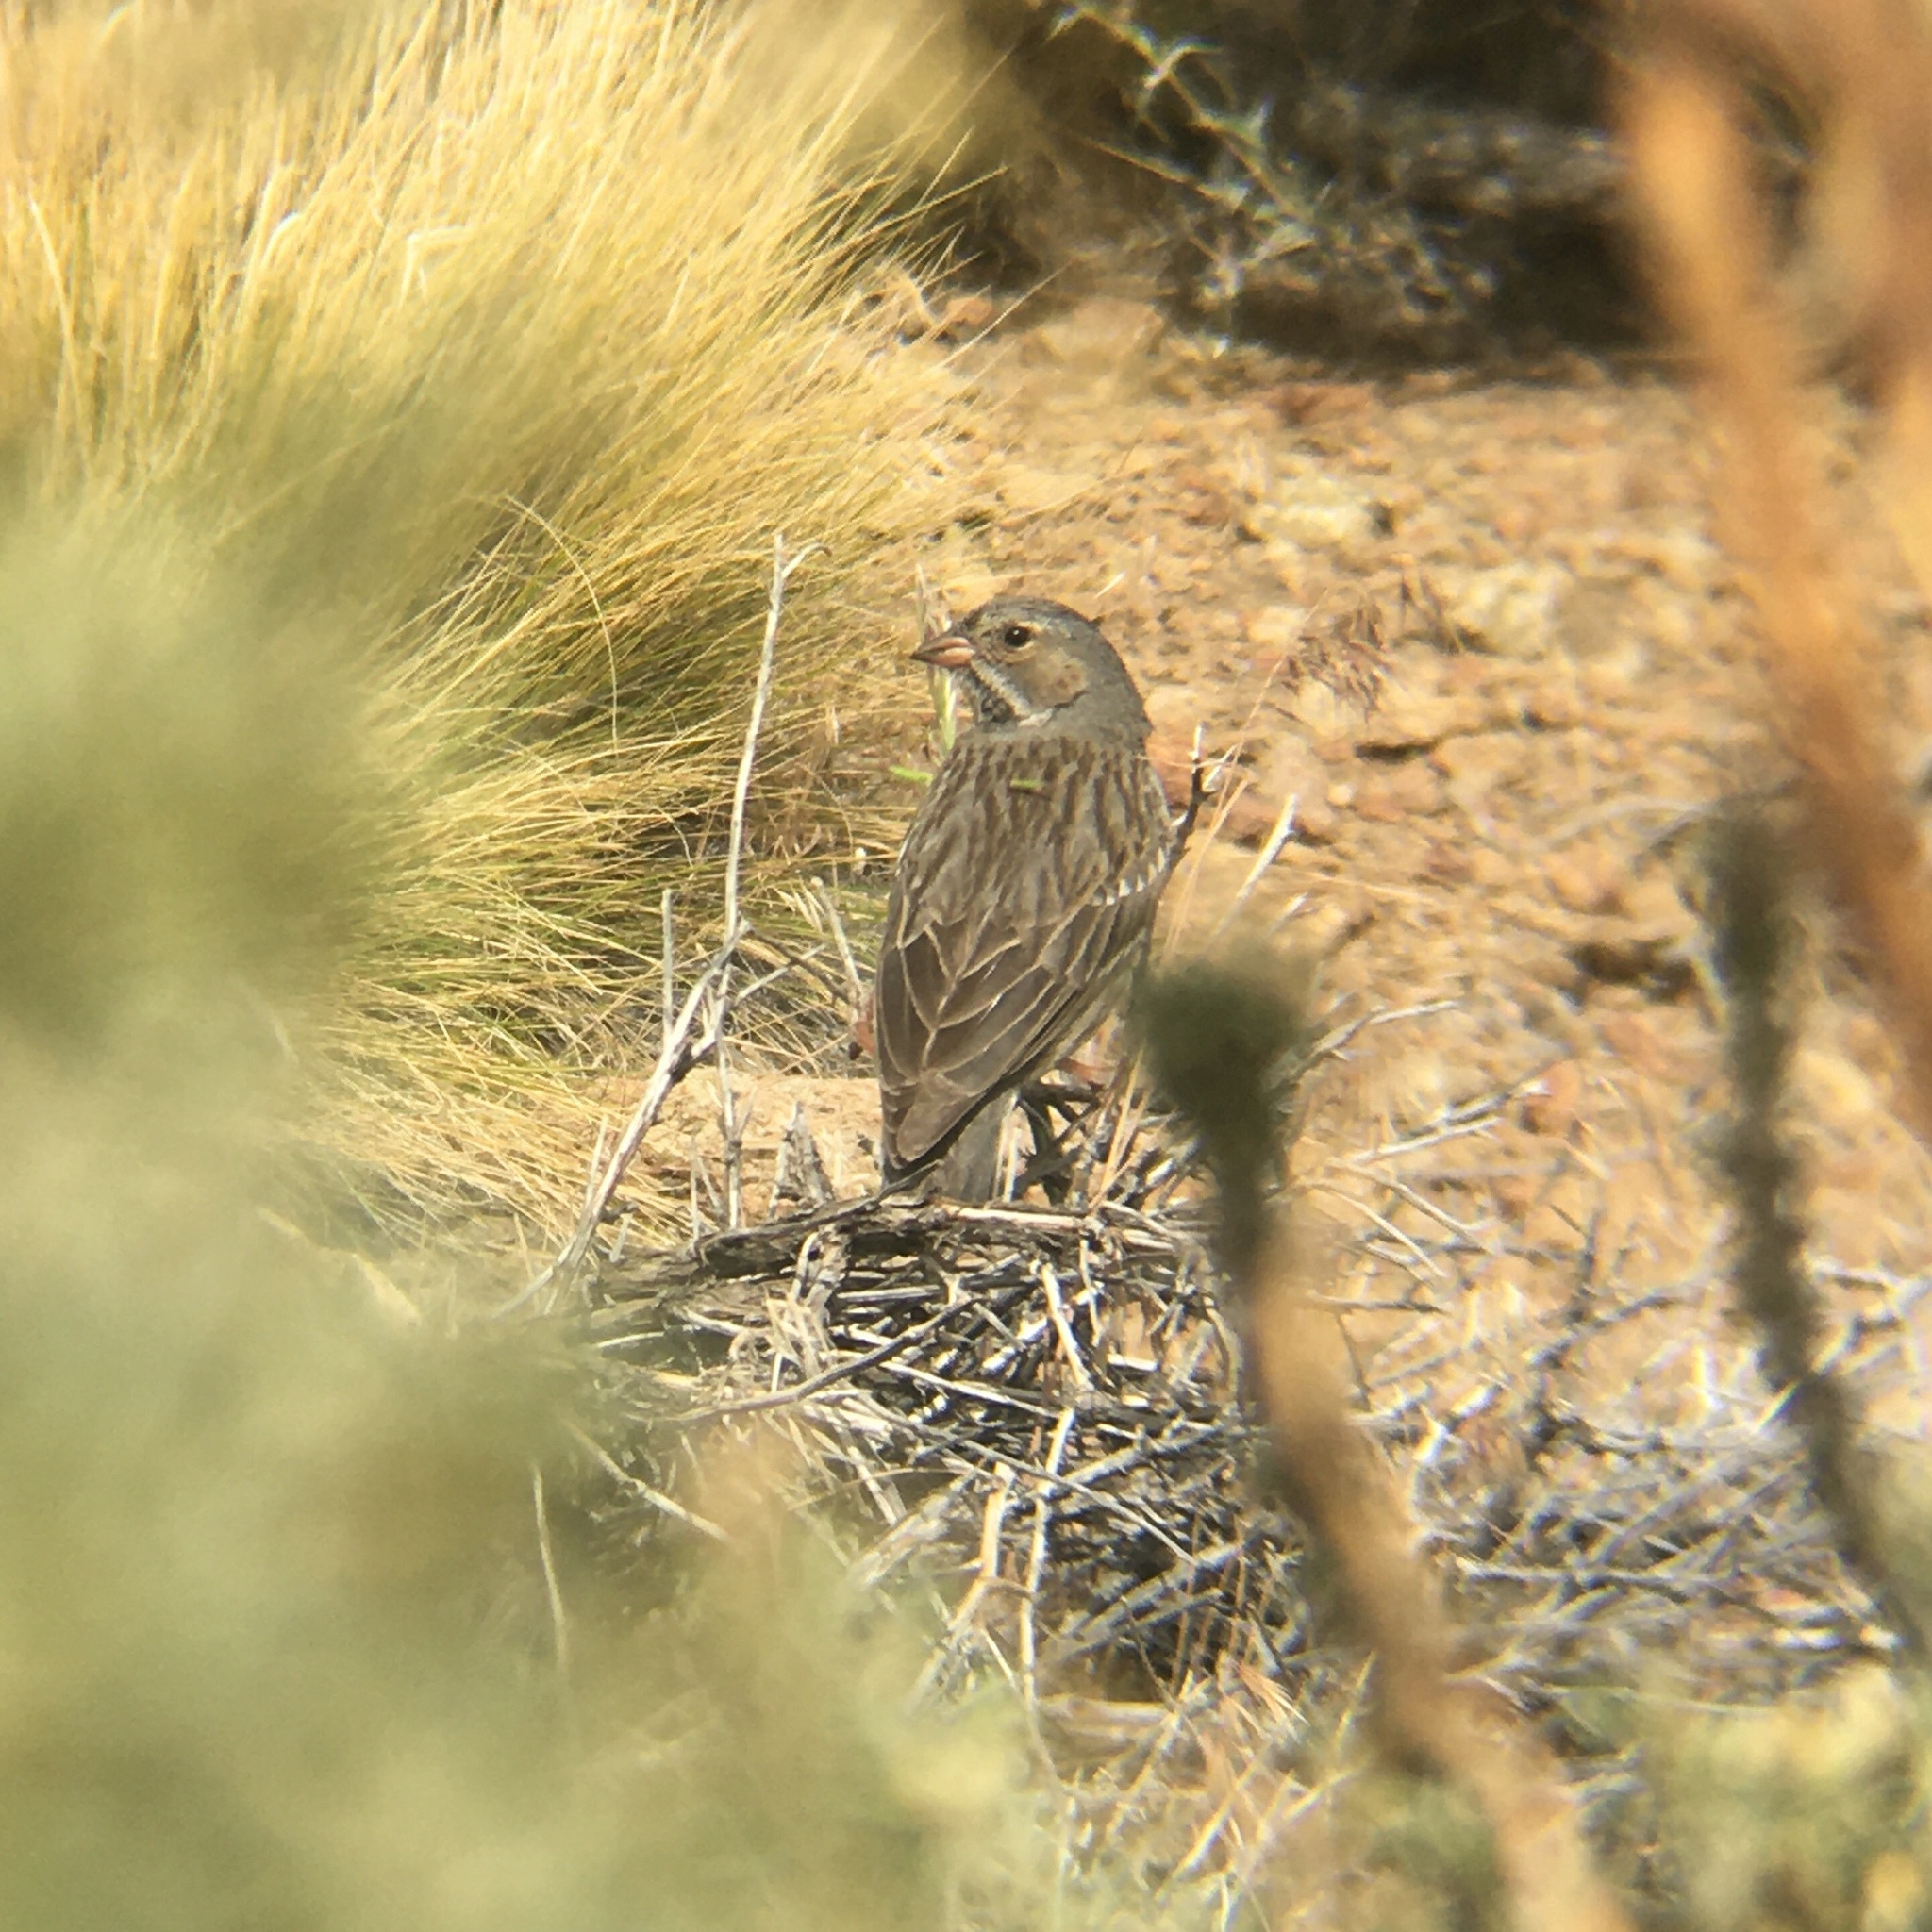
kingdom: Animalia
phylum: Chordata
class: Aves
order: Passeriformes
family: Thraupidae
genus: Rhopospina
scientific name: Rhopospina fruticeti
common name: Mourning sierra finch
